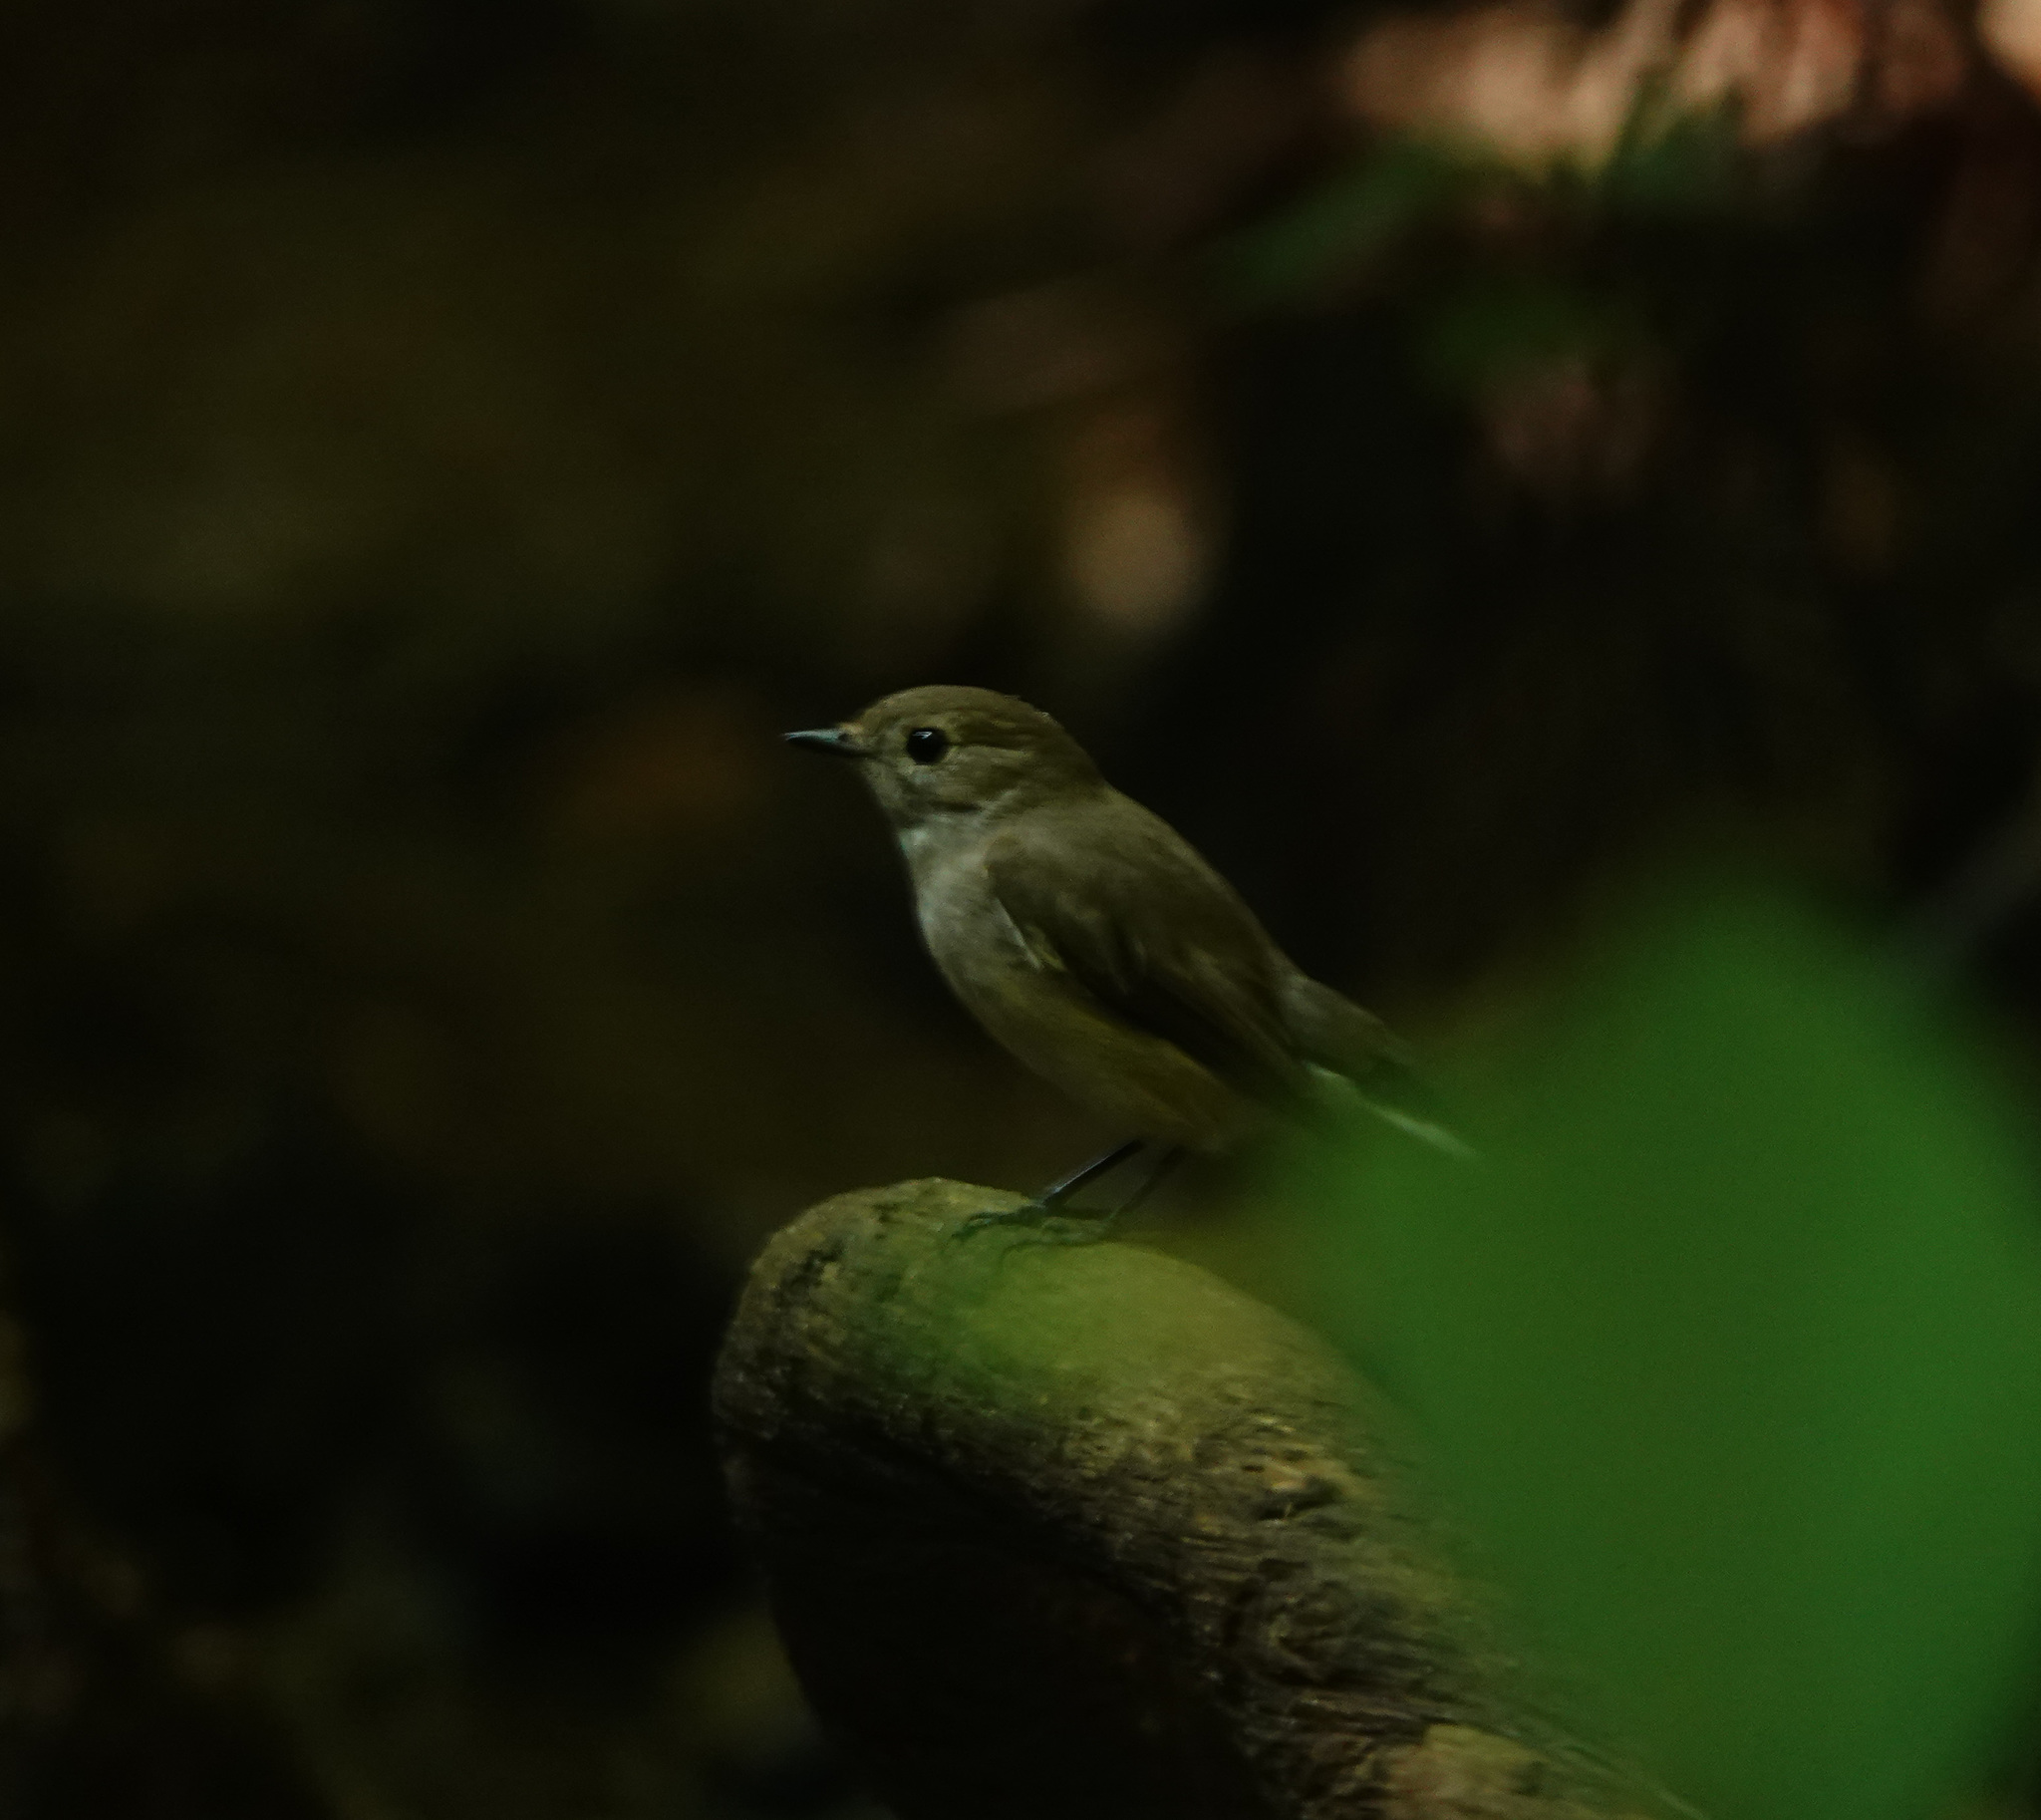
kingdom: Animalia
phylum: Chordata
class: Aves
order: Passeriformes
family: Muscicapidae
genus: Ficedula
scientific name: Ficedula albicilla
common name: Taiga flycatcher
